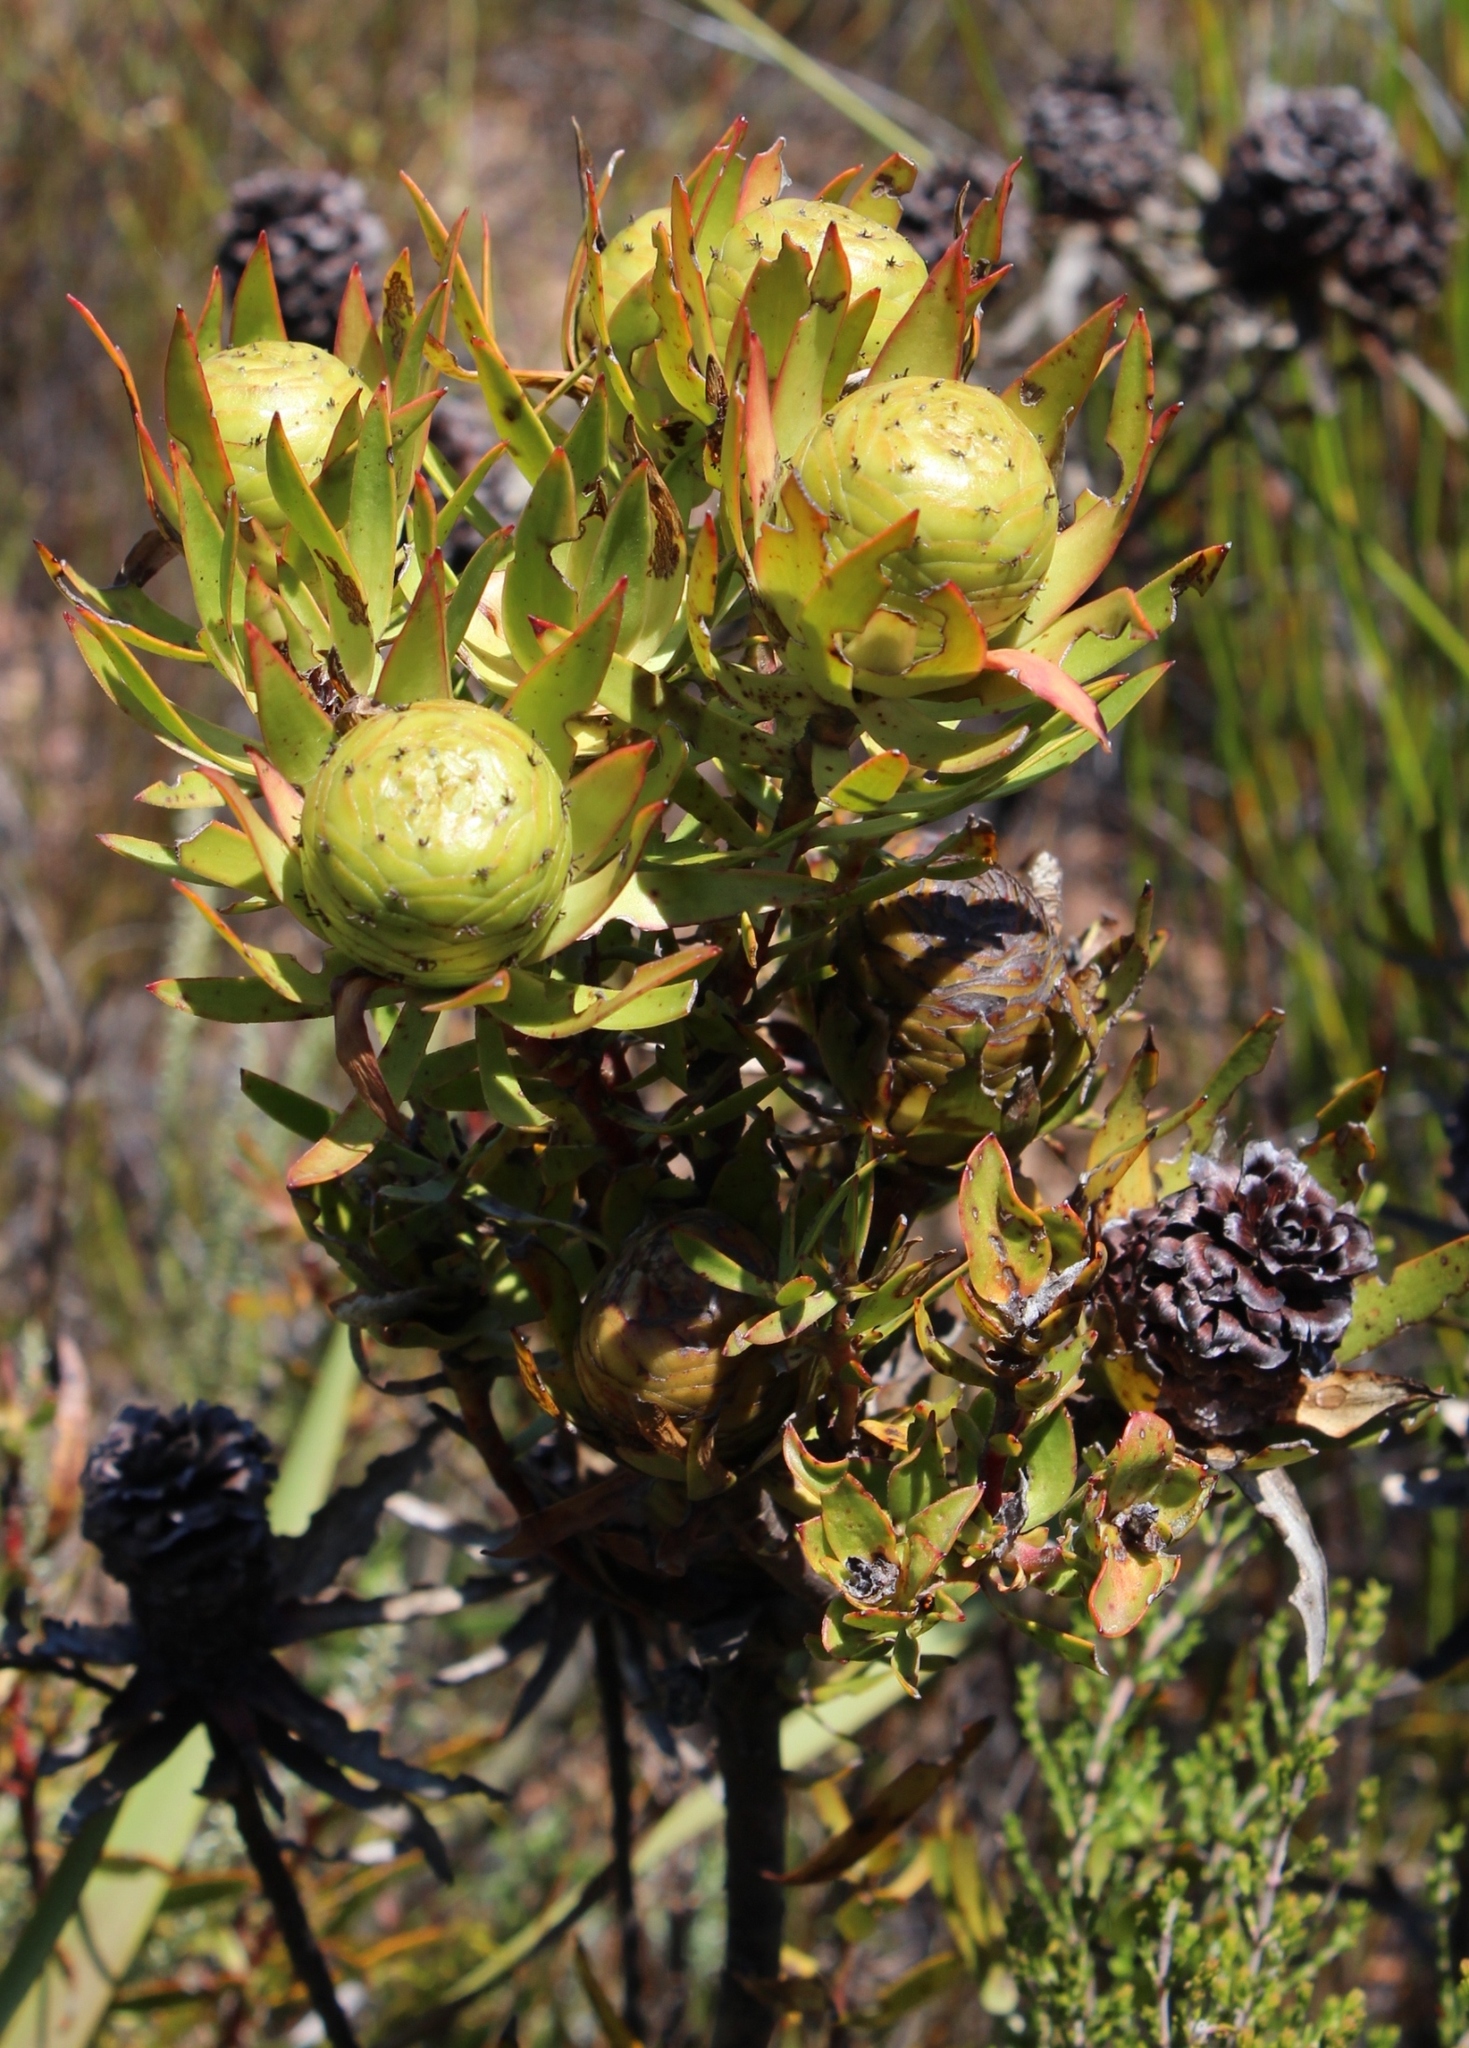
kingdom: Plantae
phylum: Tracheophyta
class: Magnoliopsida
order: Proteales
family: Proteaceae
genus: Leucadendron
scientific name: Leucadendron spissifolium
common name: Spear-leaf conebush
